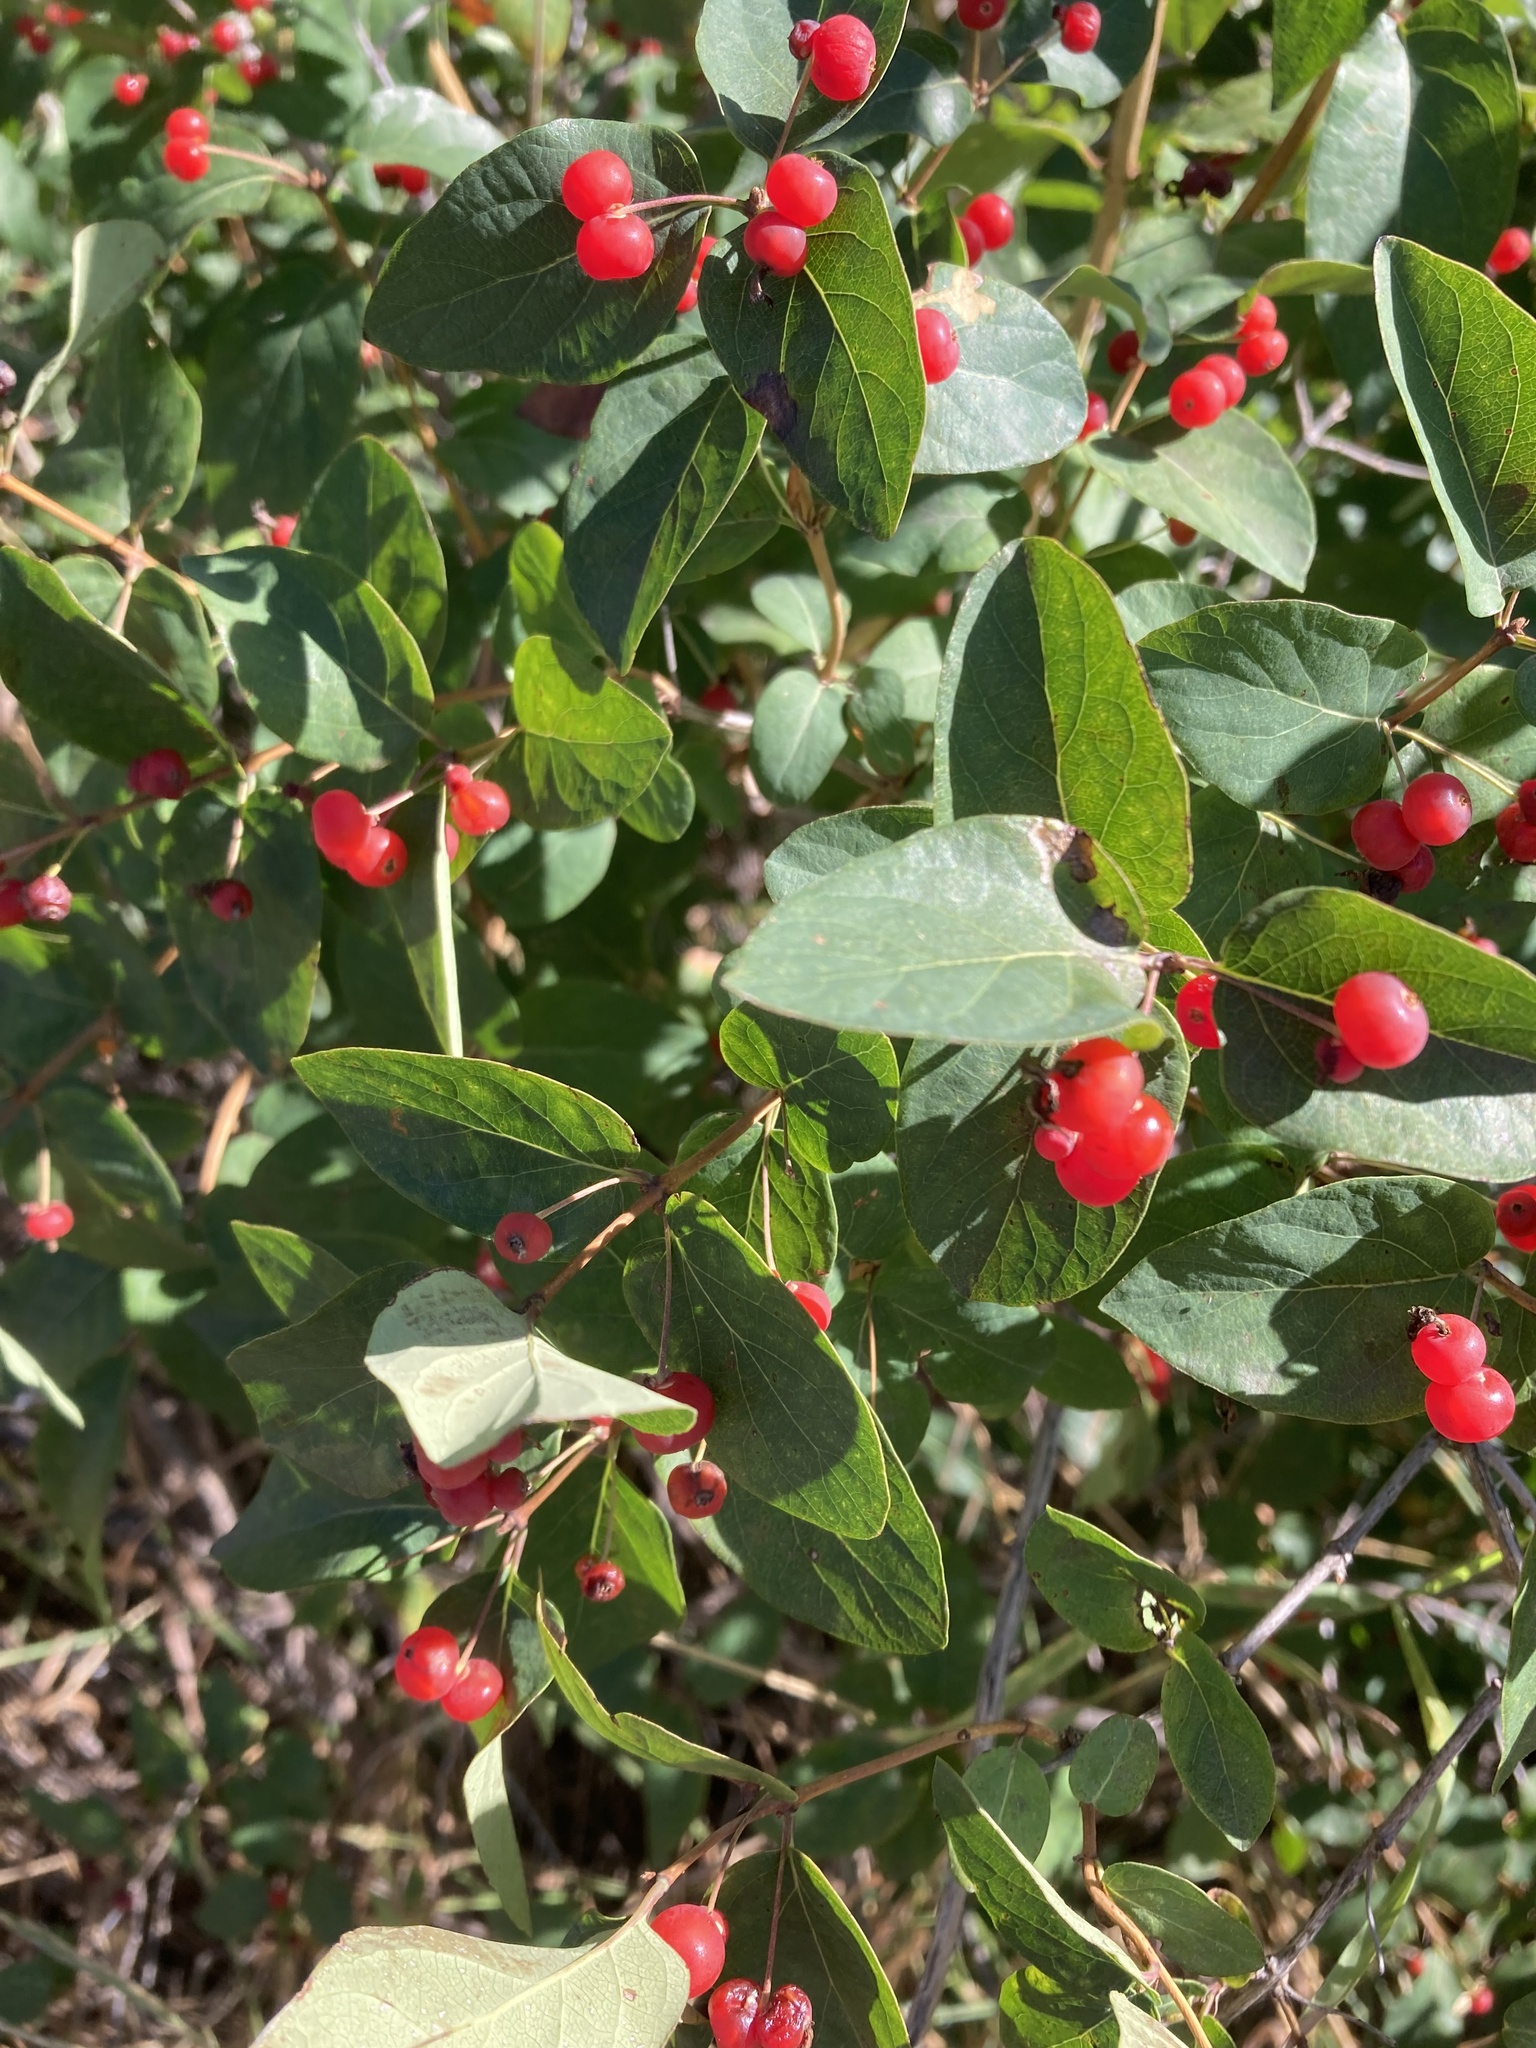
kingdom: Plantae
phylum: Tracheophyta
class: Magnoliopsida
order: Dipsacales
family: Caprifoliaceae
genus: Lonicera
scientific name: Lonicera tatarica
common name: Tatarian honeysuckle
